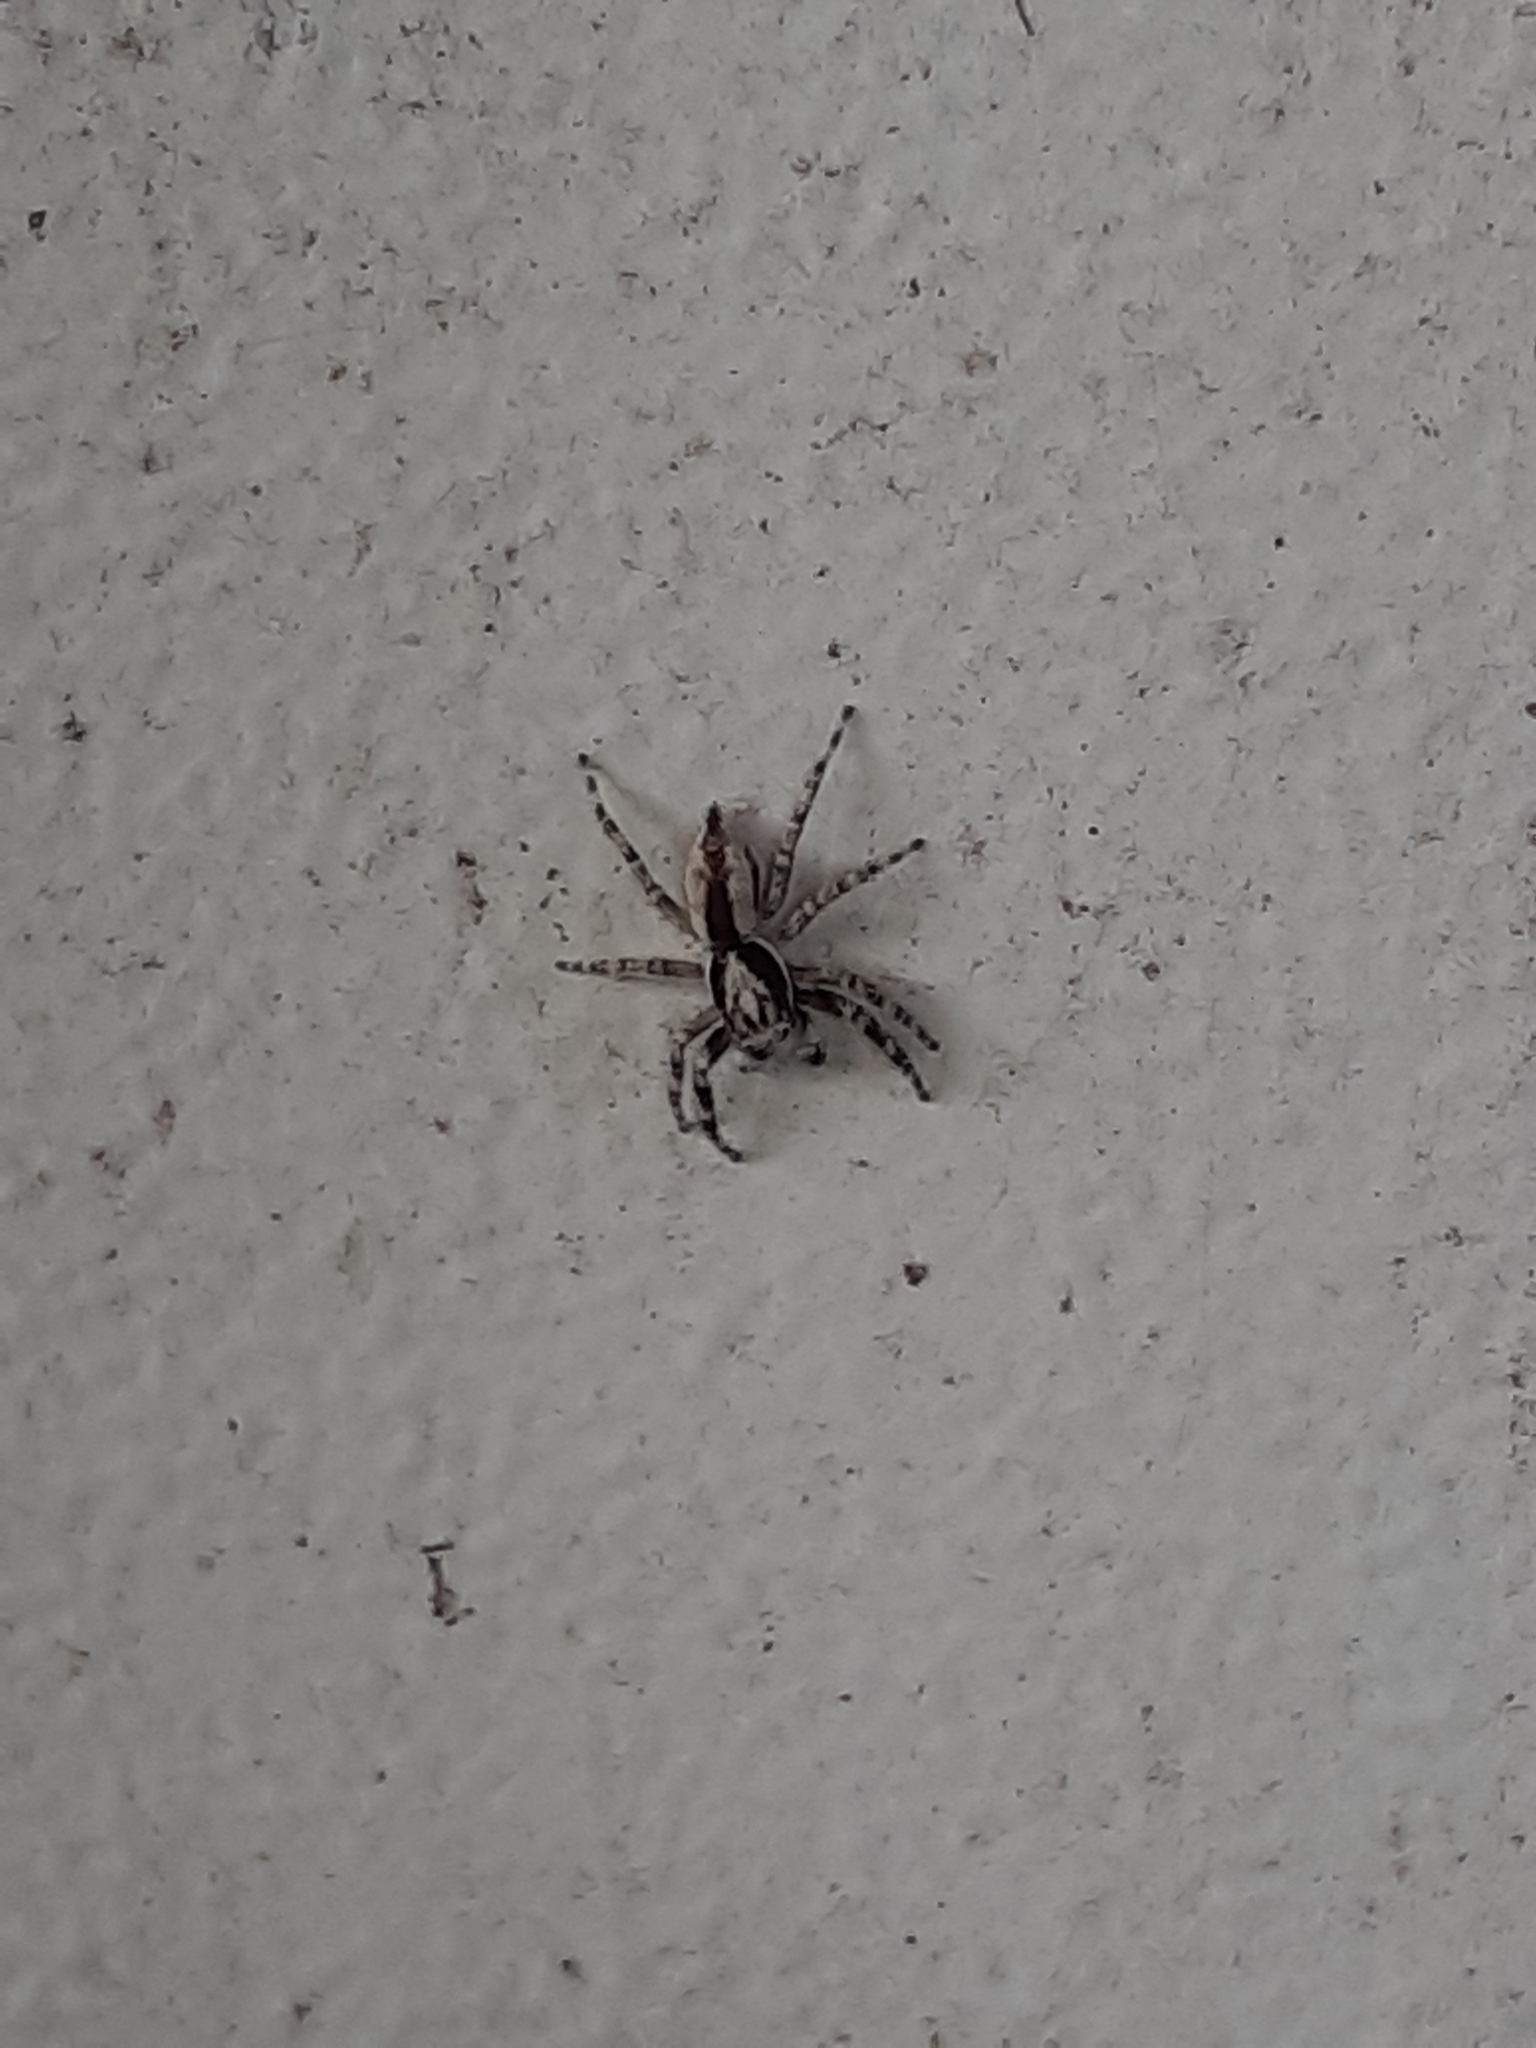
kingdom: Animalia
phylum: Arthropoda
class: Arachnida
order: Araneae
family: Salticidae
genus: Menemerus
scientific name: Menemerus bivittatus
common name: Gray wall jumper
